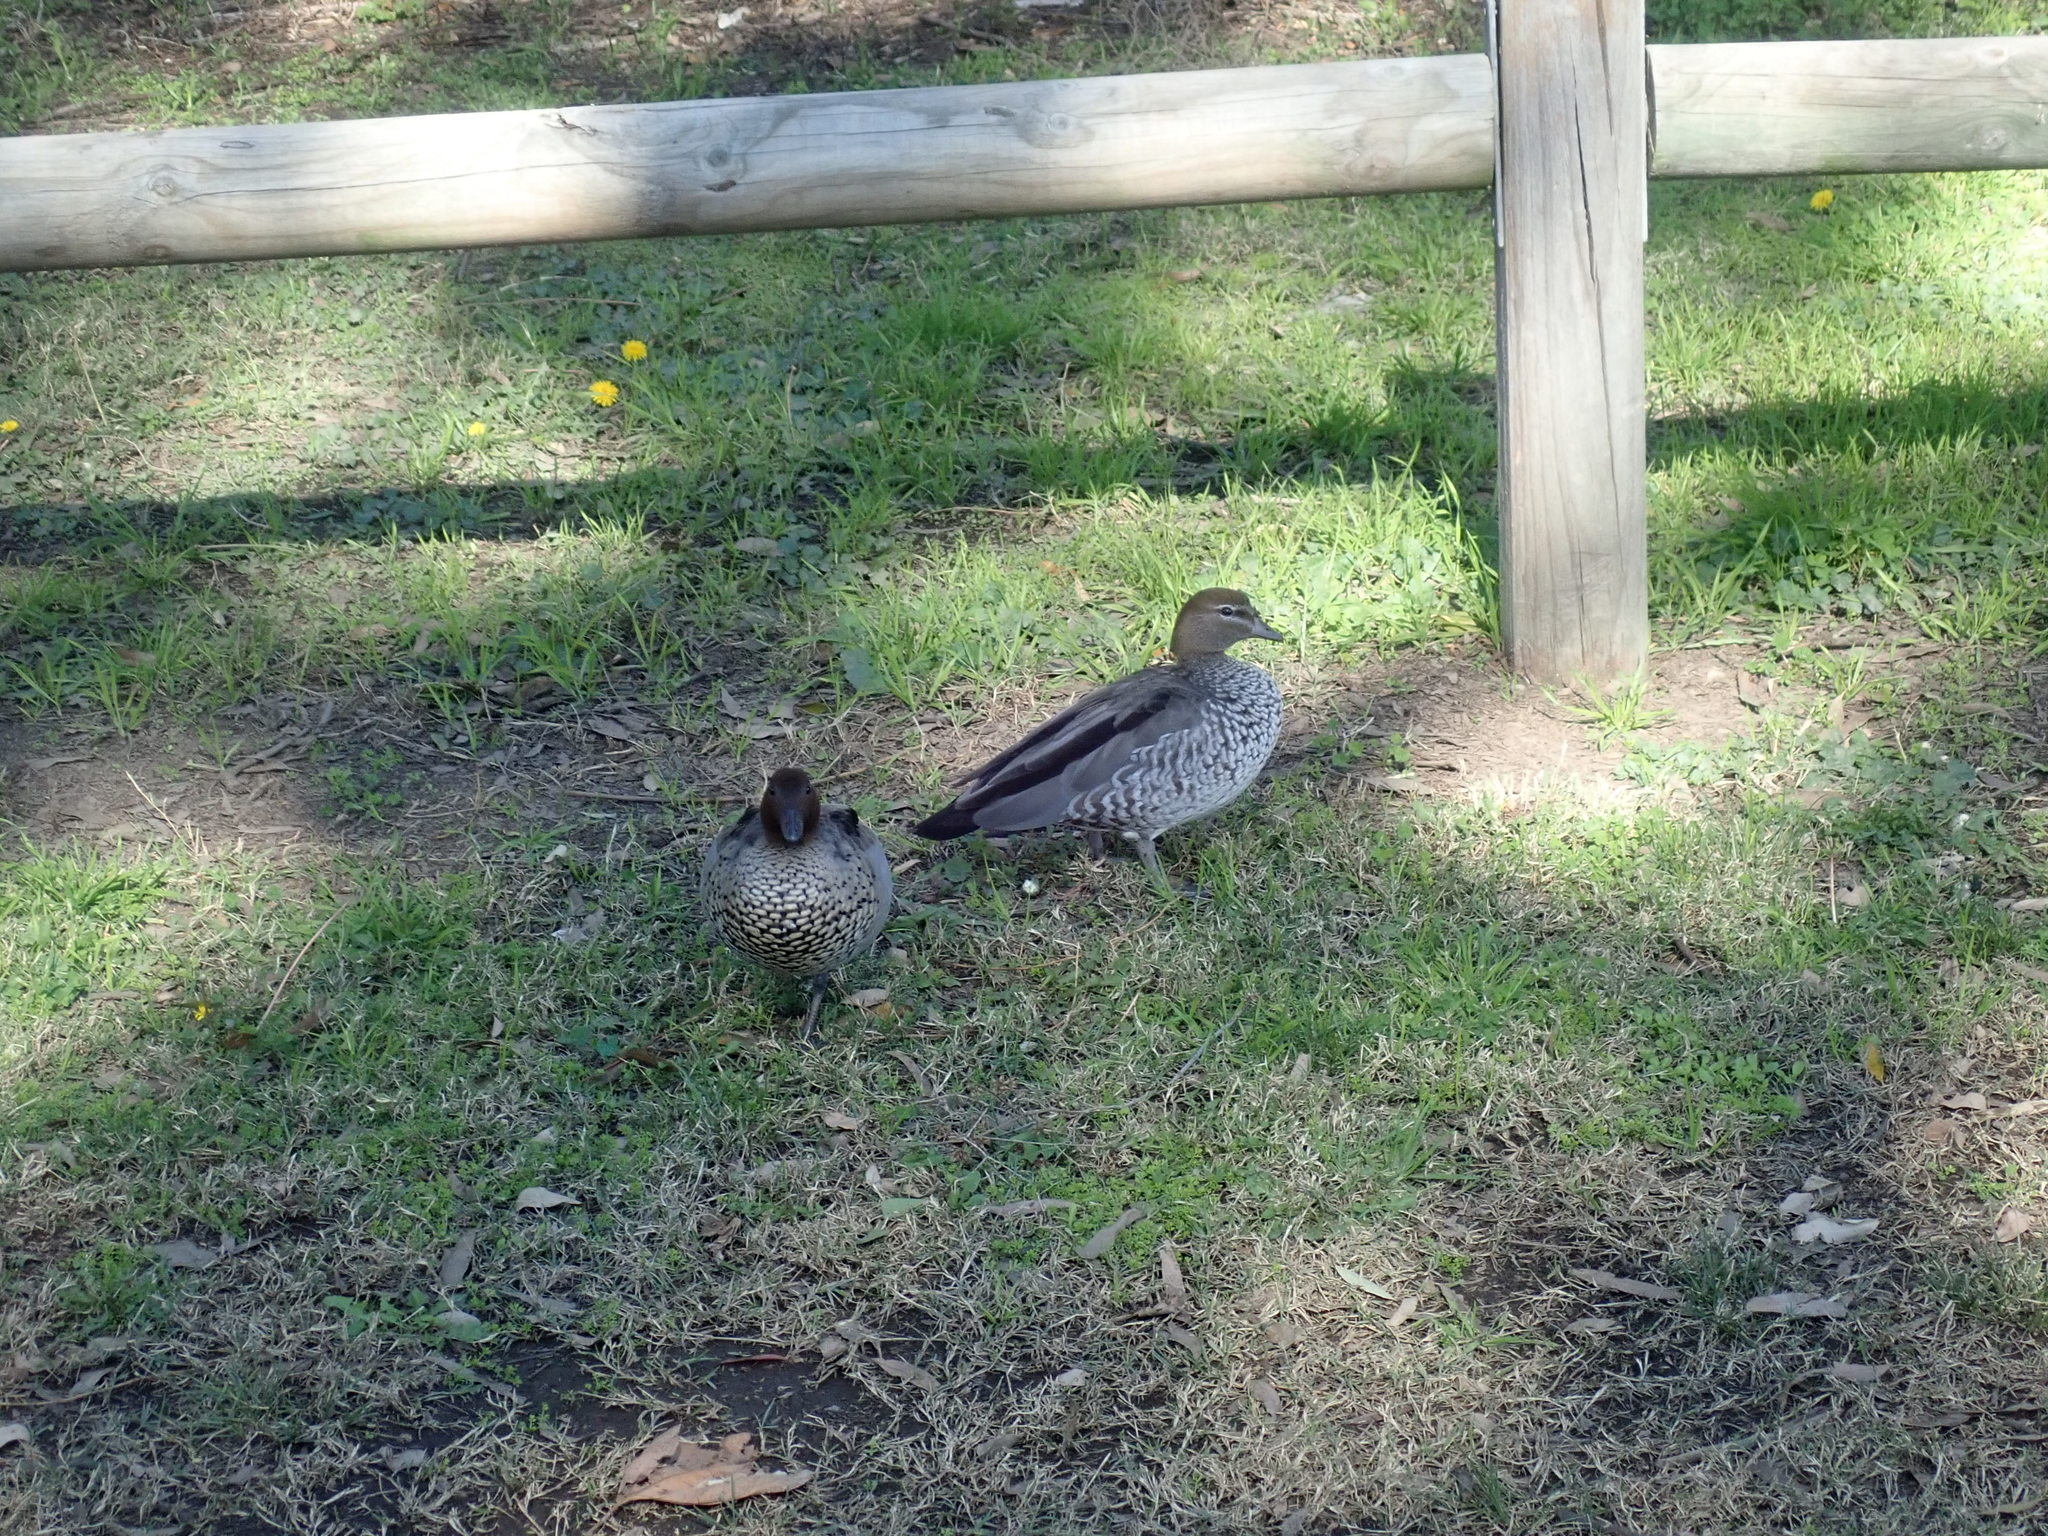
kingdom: Animalia
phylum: Chordata
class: Aves
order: Anseriformes
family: Anatidae
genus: Chenonetta
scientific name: Chenonetta jubata
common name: Maned duck
